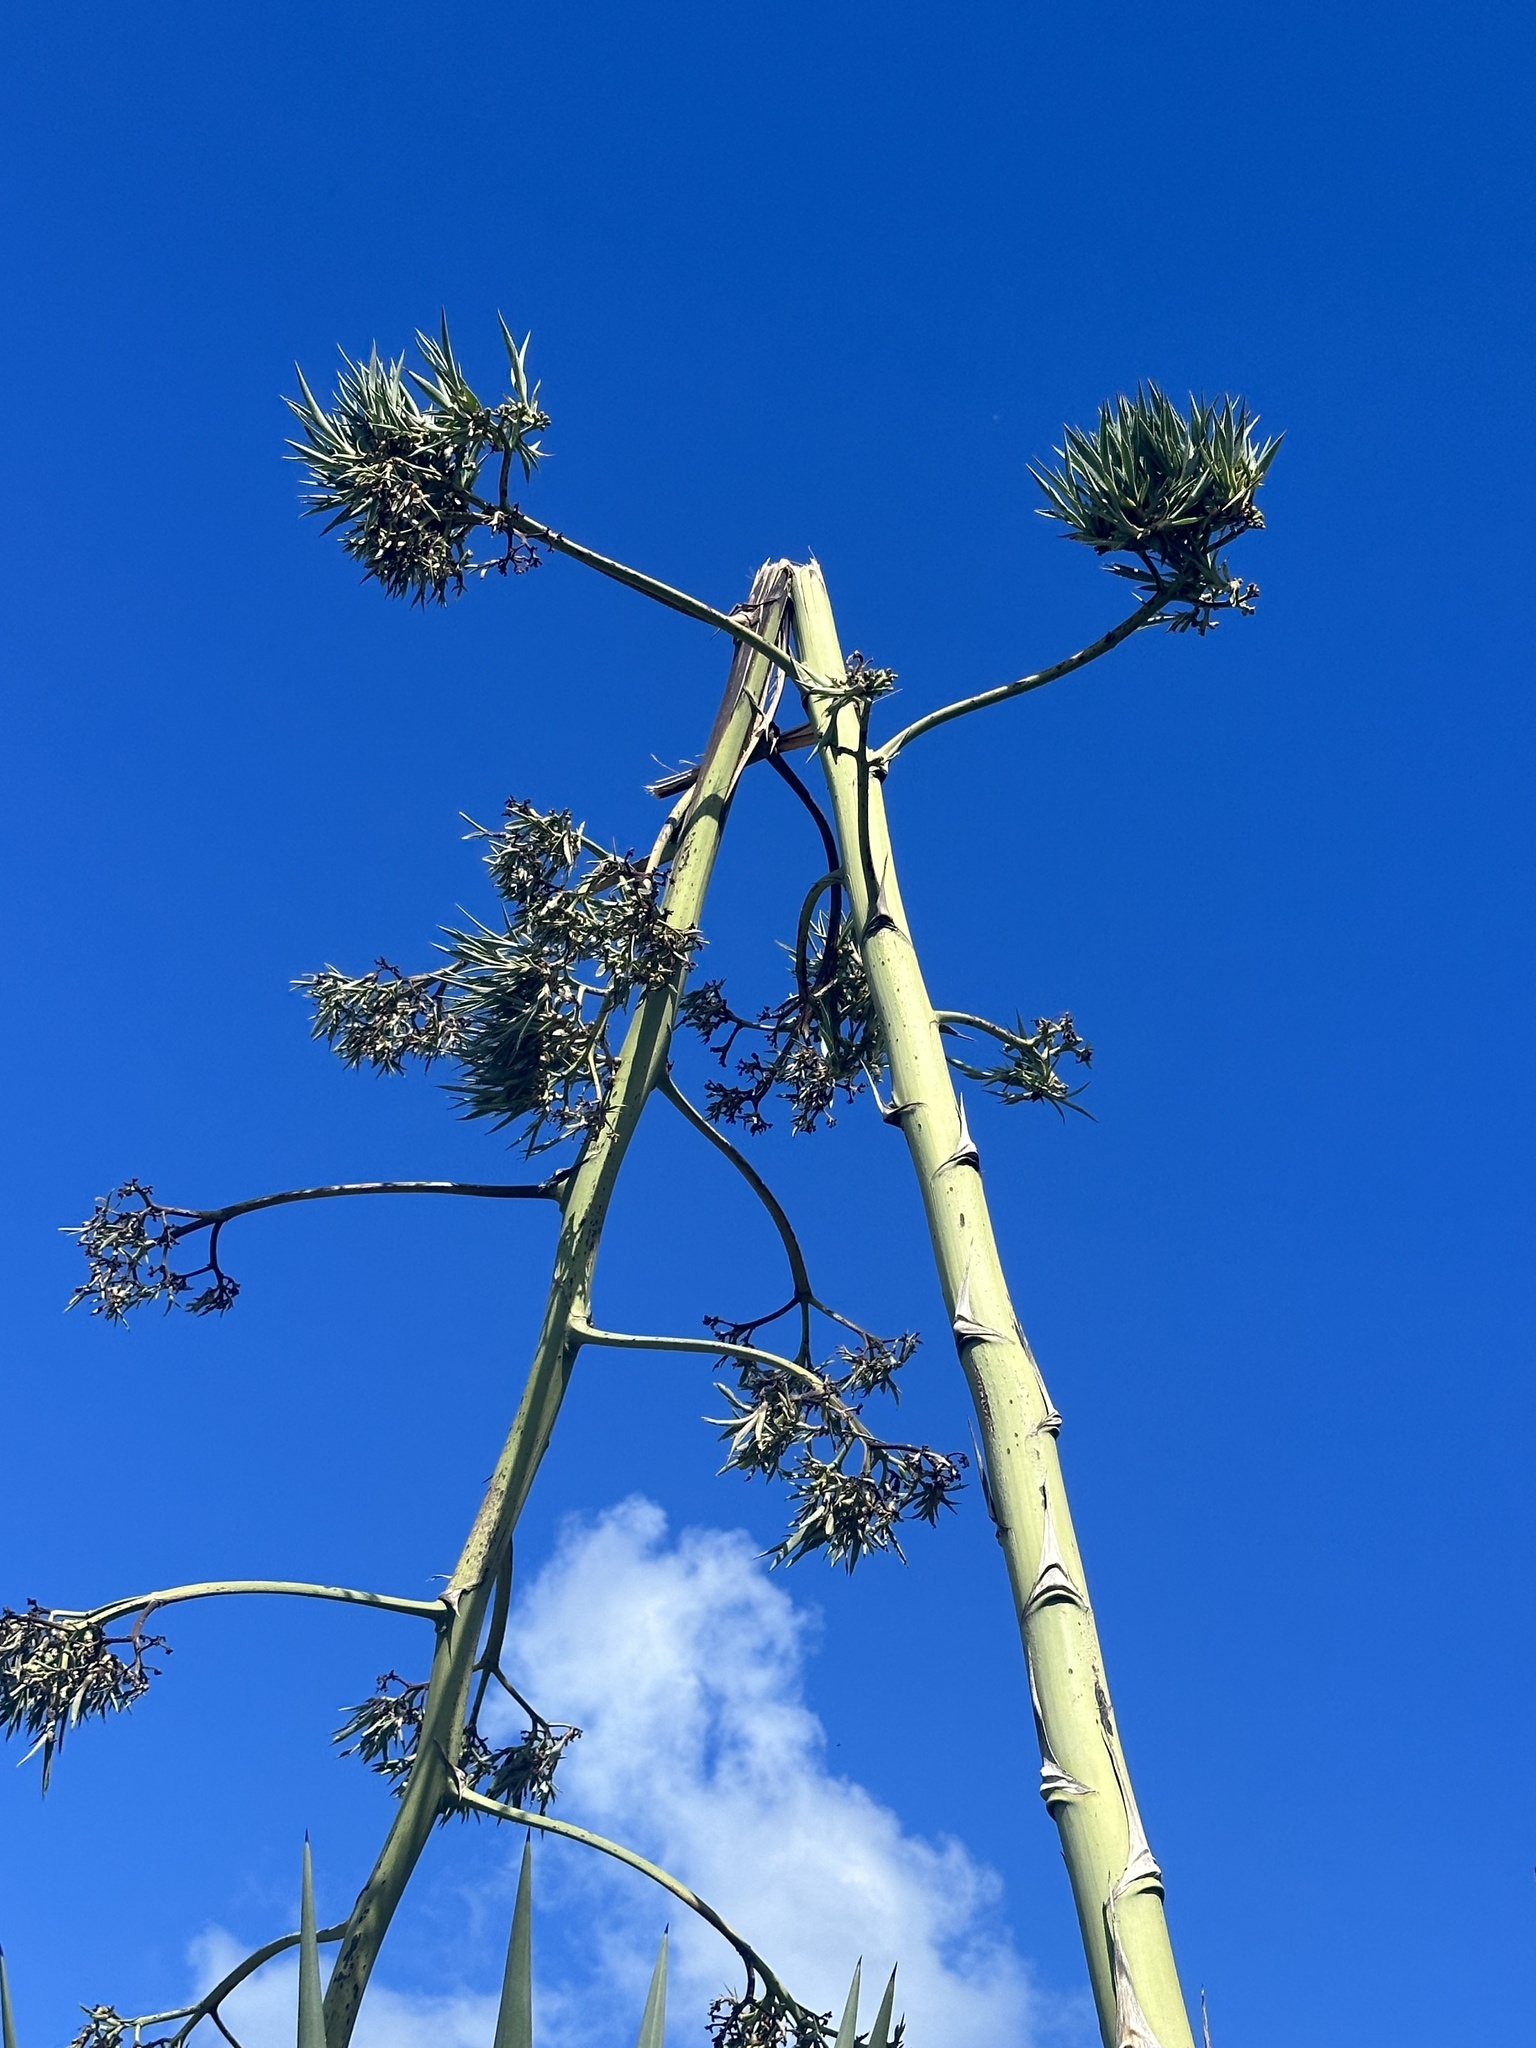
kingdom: Plantae
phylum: Tracheophyta
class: Liliopsida
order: Asparagales
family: Asparagaceae
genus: Agave
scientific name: Agave sisalana
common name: Sisal hemp
